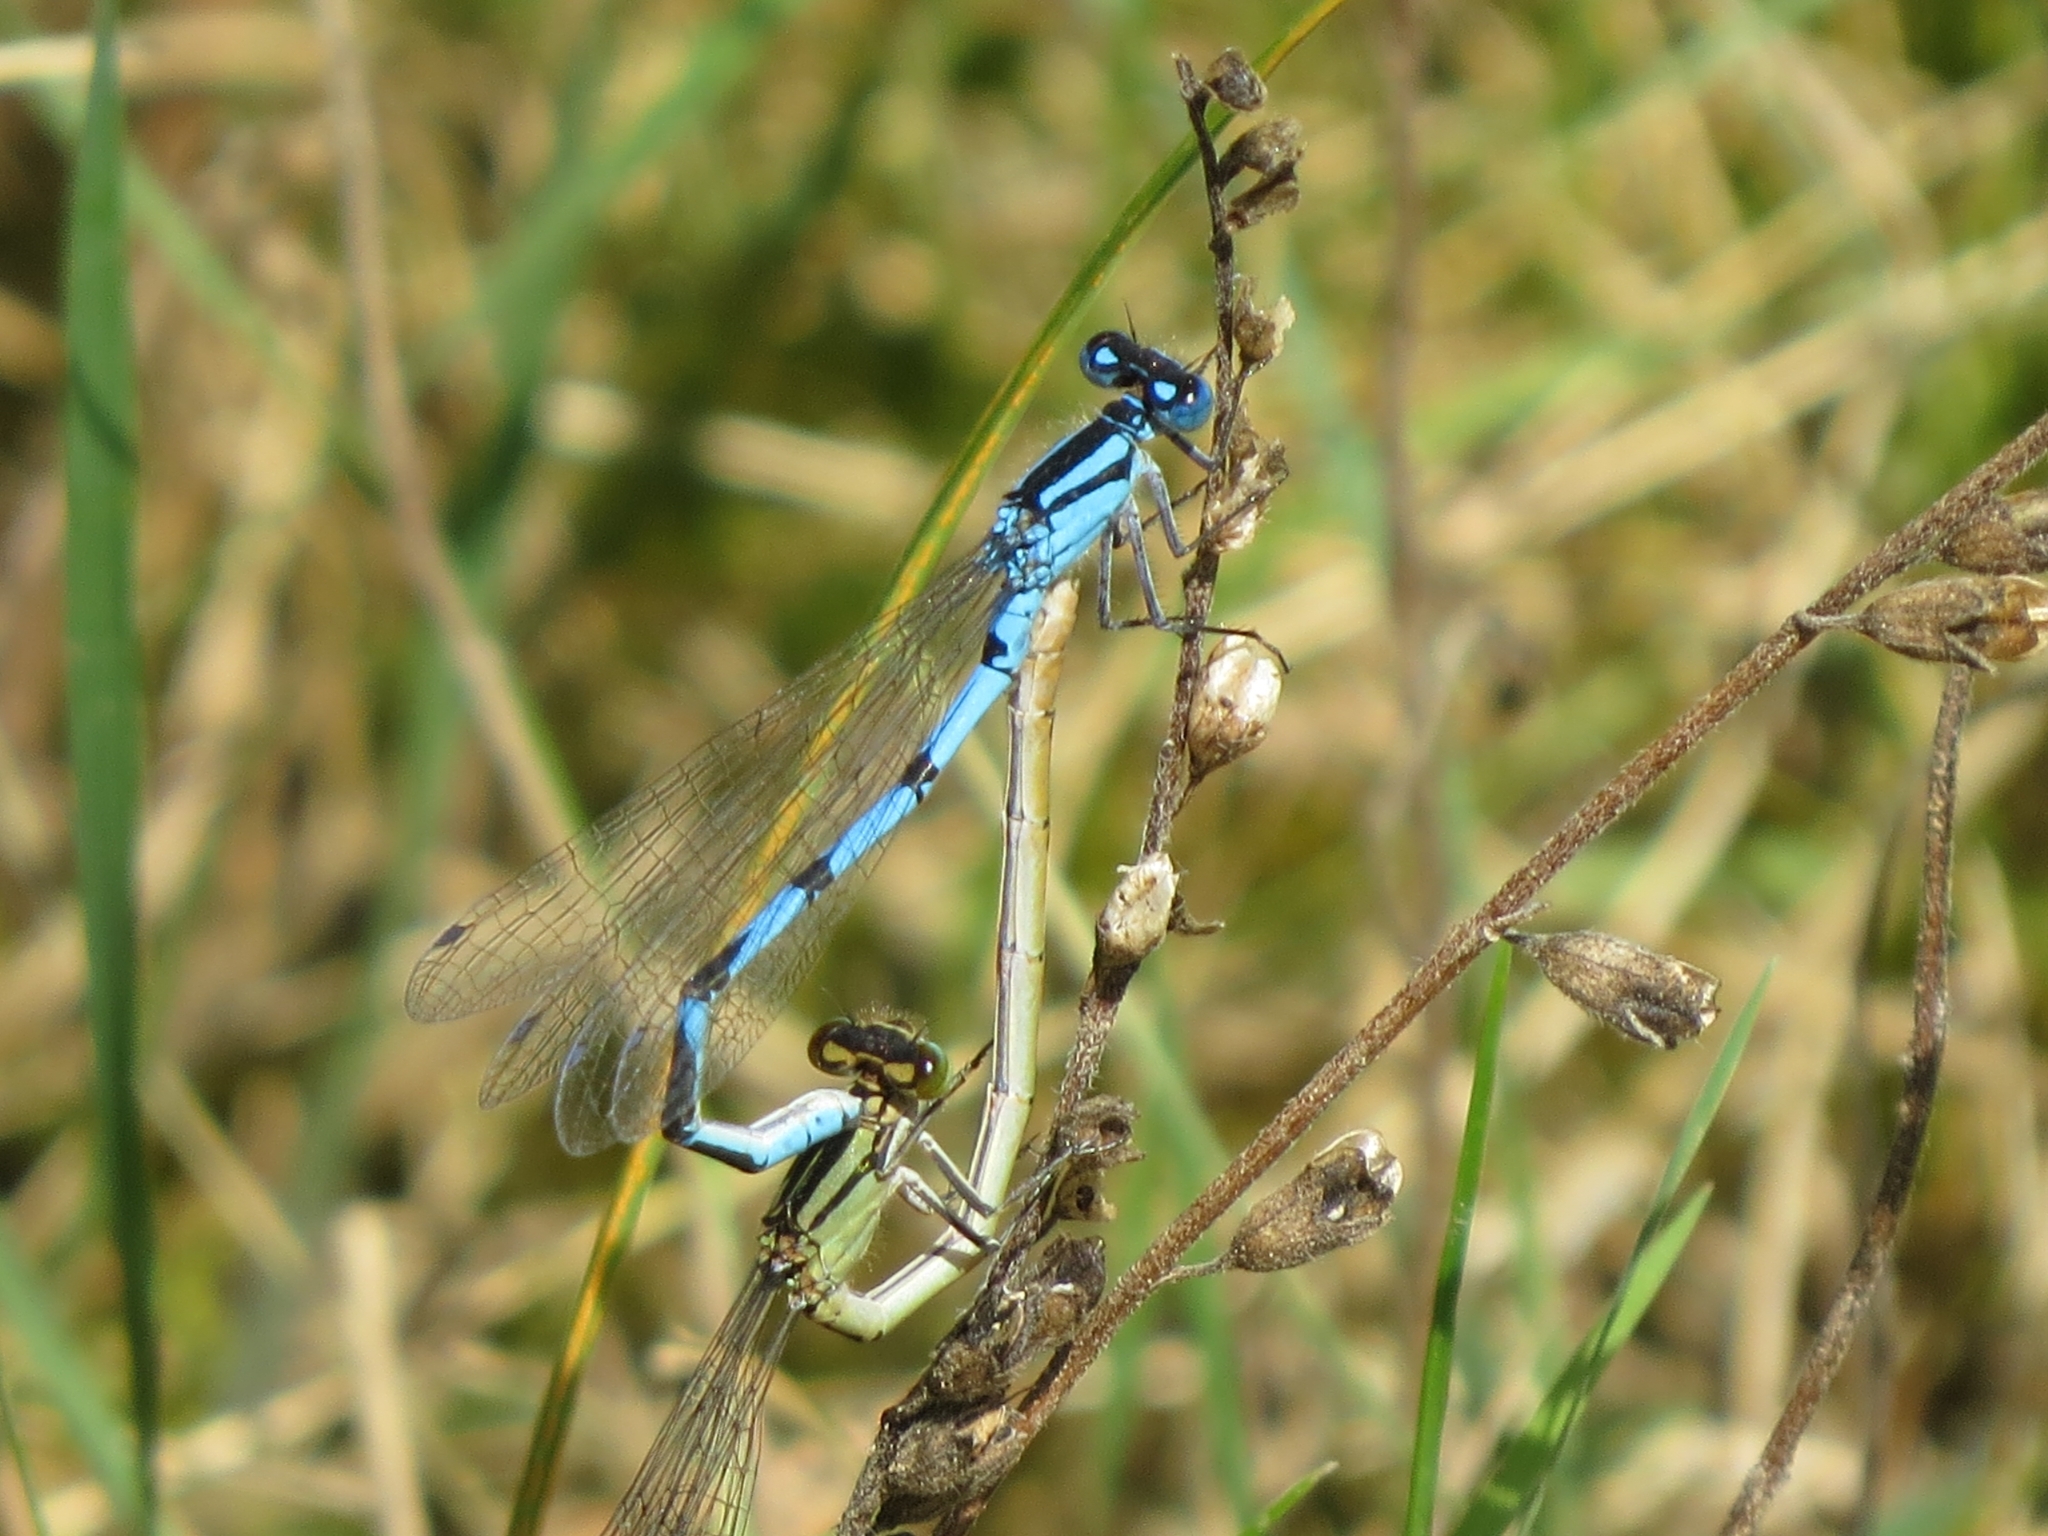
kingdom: Animalia
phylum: Arthropoda
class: Insecta
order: Odonata
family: Coenagrionidae
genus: Enallagma
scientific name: Enallagma cyathigerum
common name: Common blue damselfly
